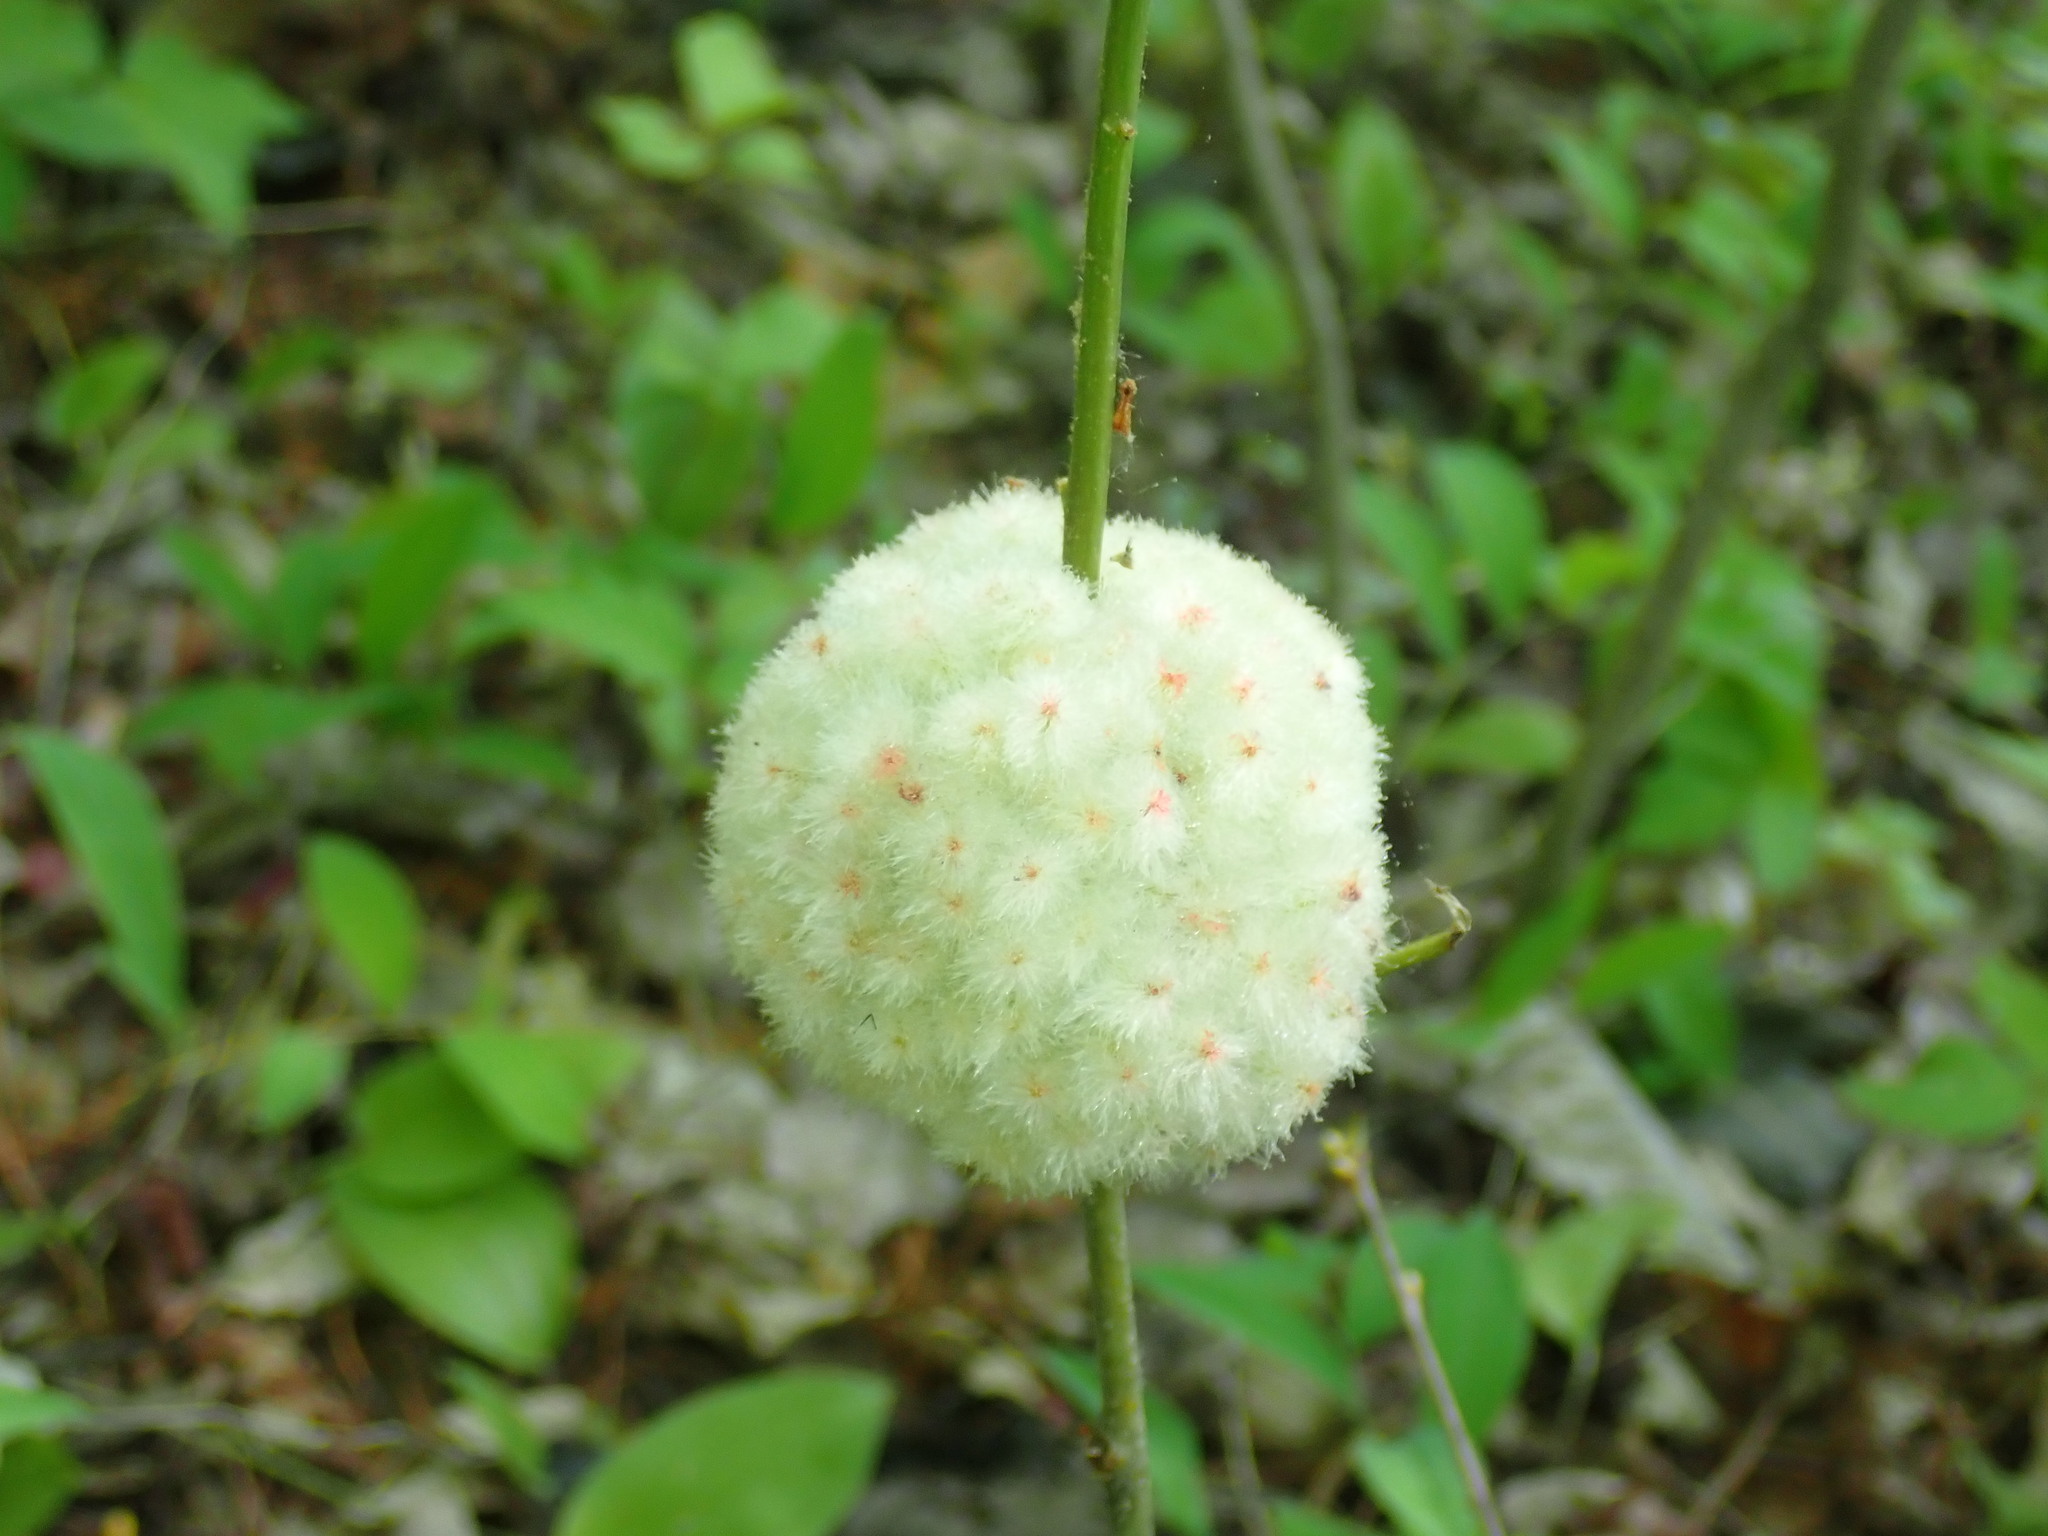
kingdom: Animalia
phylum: Arthropoda
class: Insecta
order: Hymenoptera
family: Cynipidae
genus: Callirhytis
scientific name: Callirhytis
